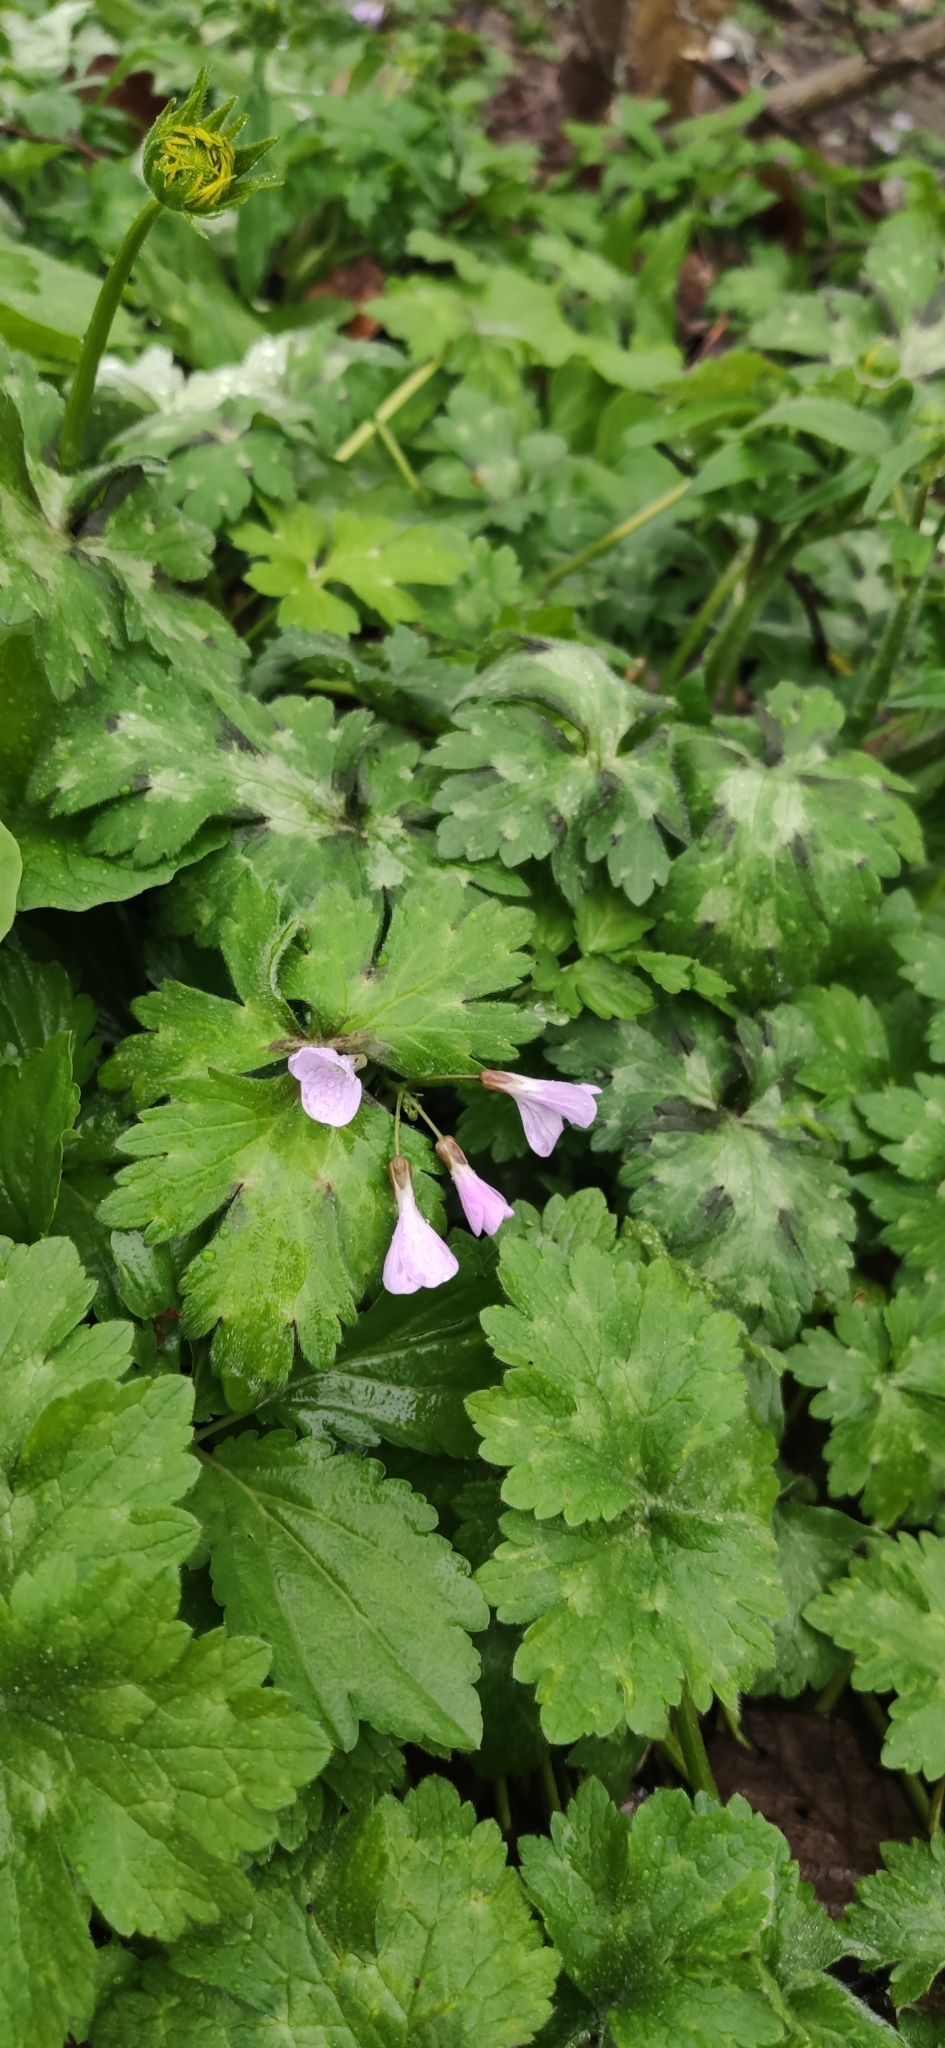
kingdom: Plantae
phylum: Tracheophyta
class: Magnoliopsida
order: Brassicales
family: Brassicaceae
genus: Cardamine
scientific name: Cardamine quinquefolia
